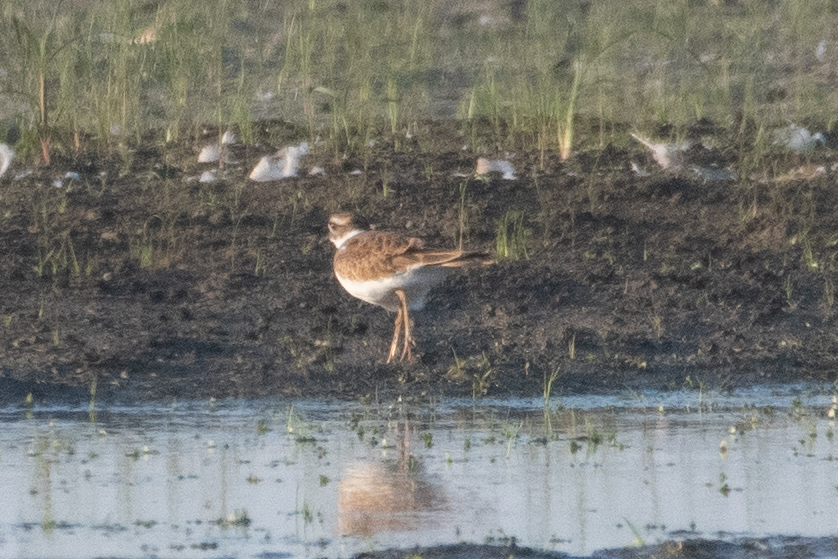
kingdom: Animalia
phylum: Chordata
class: Aves
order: Charadriiformes
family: Charadriidae
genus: Charadrius
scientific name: Charadrius vociferus
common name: Killdeer
